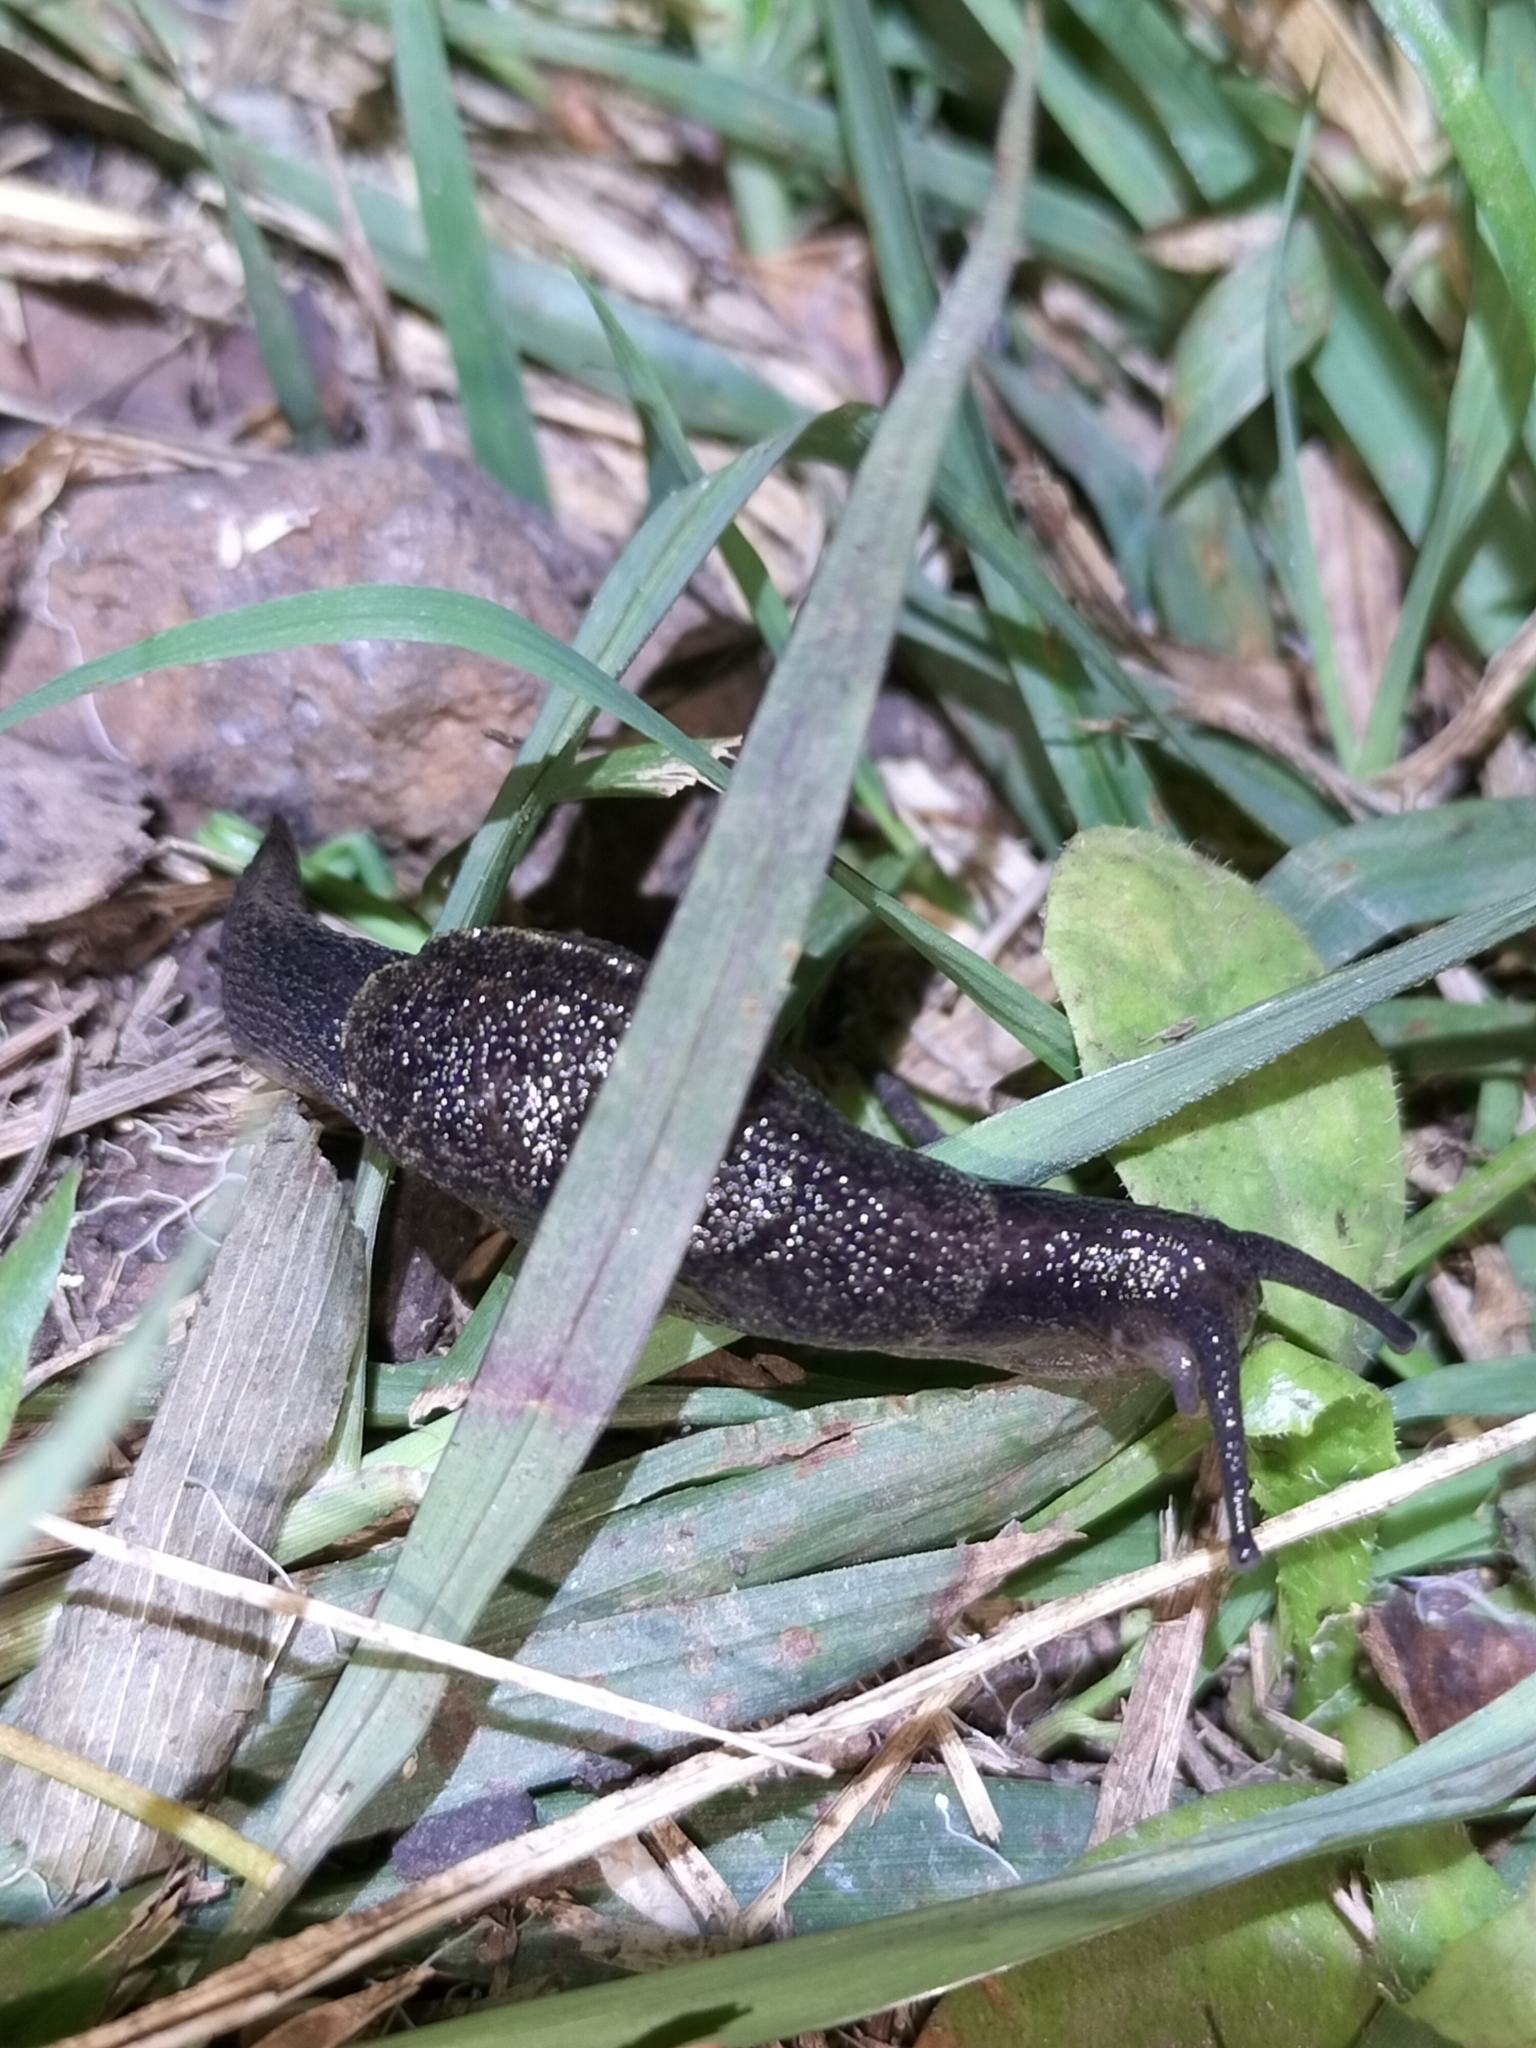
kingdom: Animalia
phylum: Mollusca
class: Gastropoda
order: Stylommatophora
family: Helicarionidae
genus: Parmacochlea
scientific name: Parmacochlea balios
